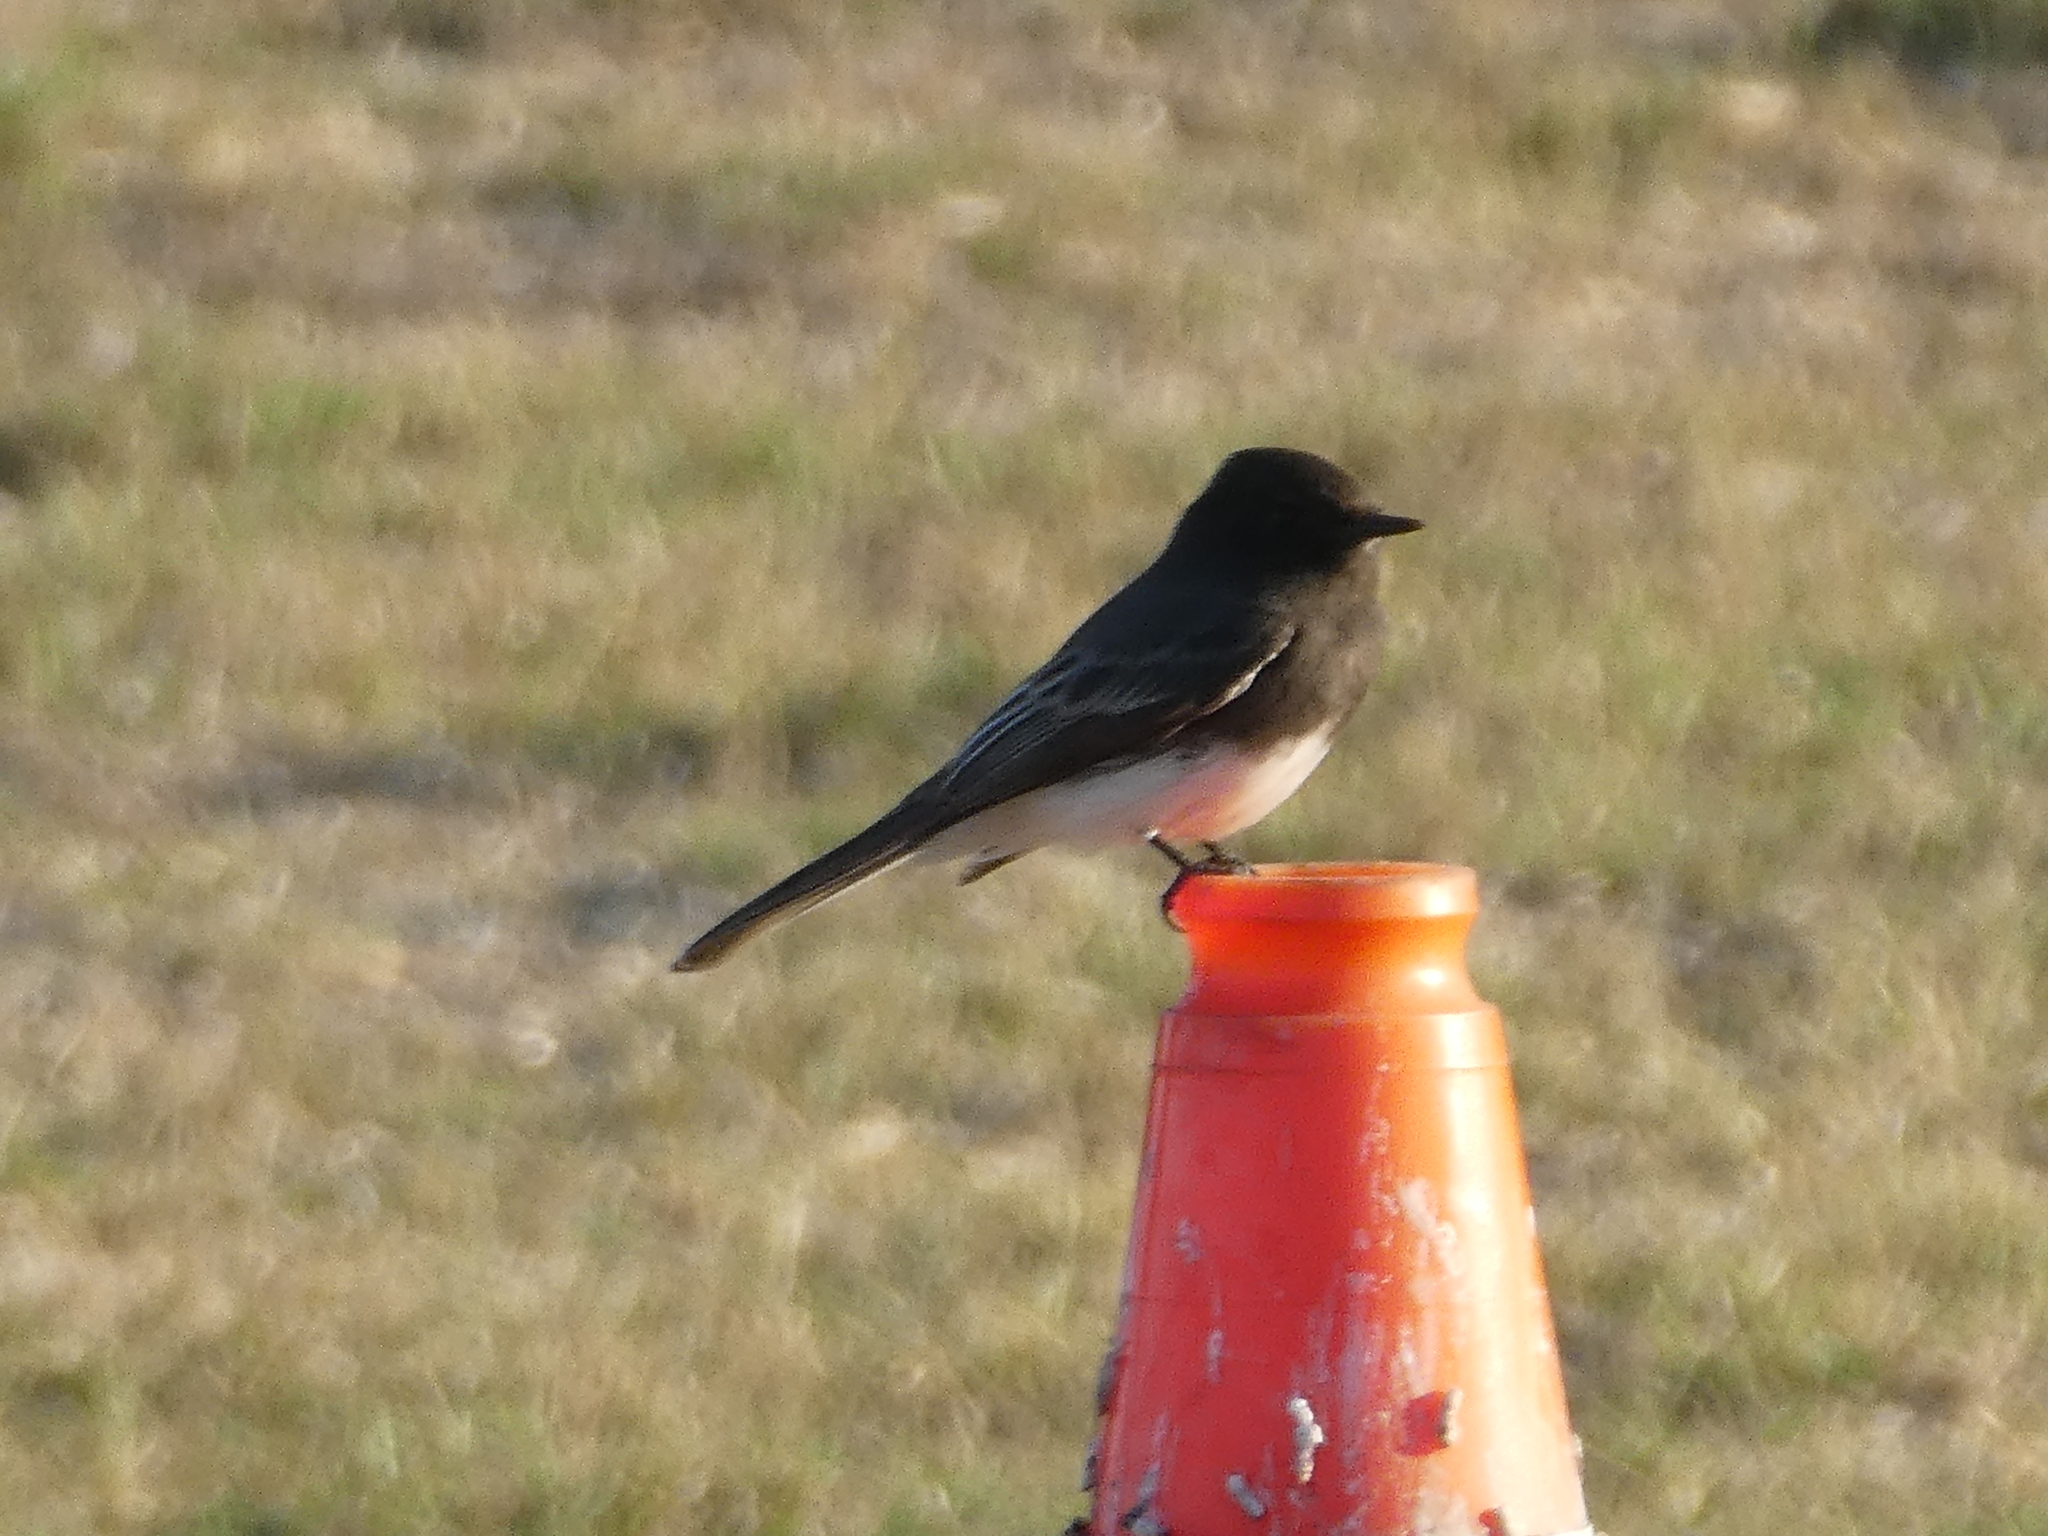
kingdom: Animalia
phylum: Chordata
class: Aves
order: Passeriformes
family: Tyrannidae
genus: Sayornis
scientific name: Sayornis nigricans
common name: Black phoebe
